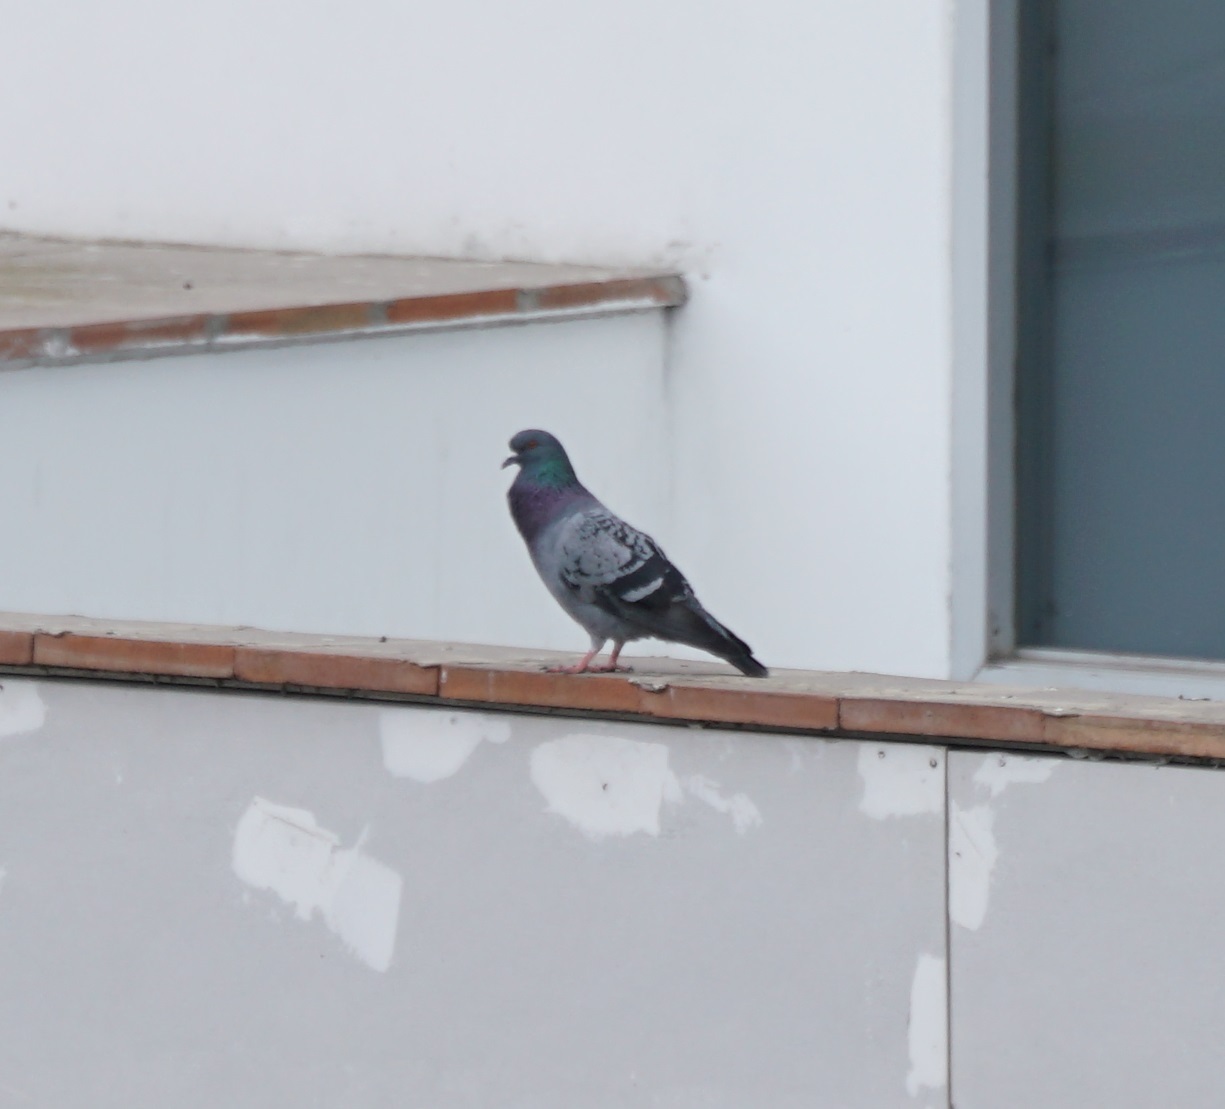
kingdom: Animalia
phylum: Chordata
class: Aves
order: Columbiformes
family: Columbidae
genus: Columba
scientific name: Columba livia
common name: Rock pigeon
